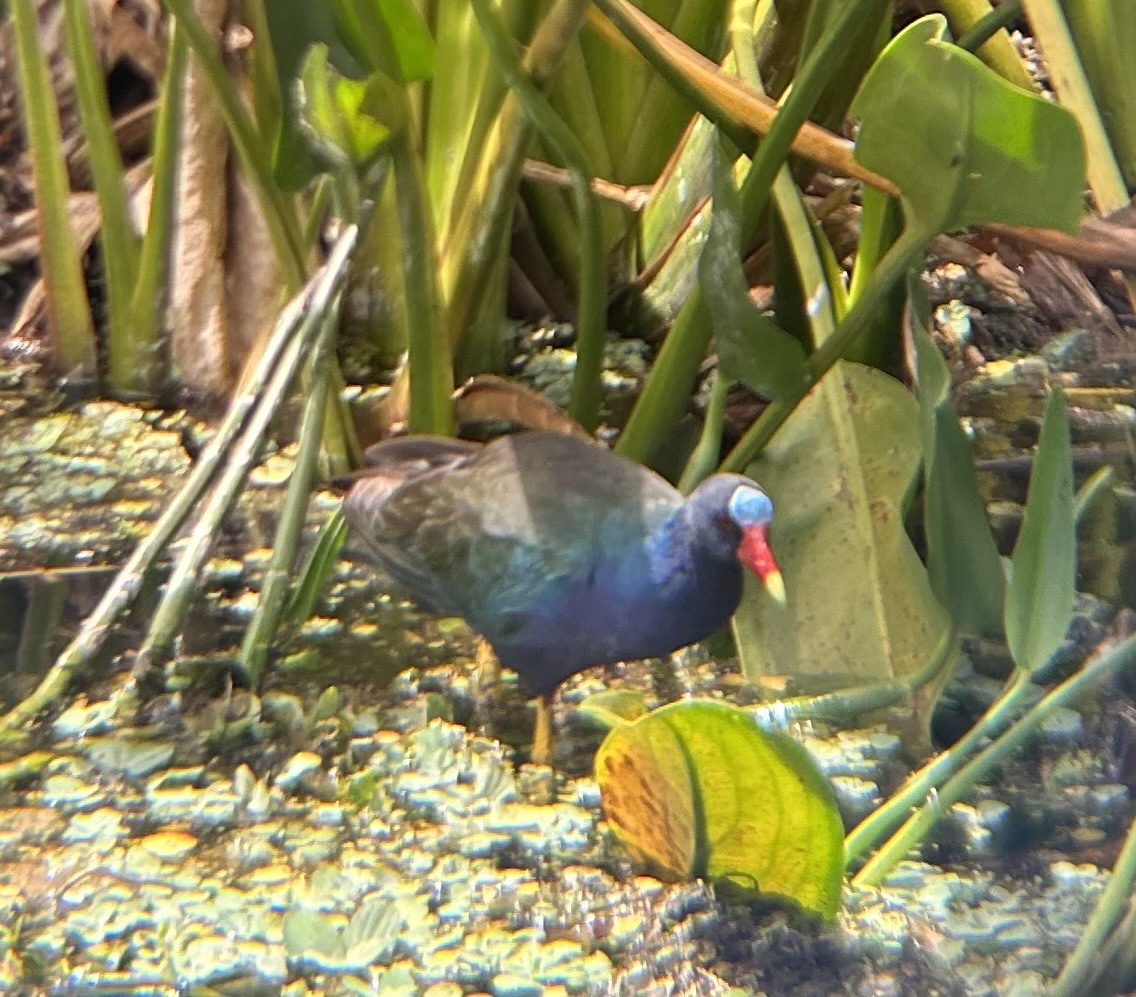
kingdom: Animalia
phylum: Chordata
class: Aves
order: Gruiformes
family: Rallidae
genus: Porphyrio
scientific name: Porphyrio martinica
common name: Purple gallinule
